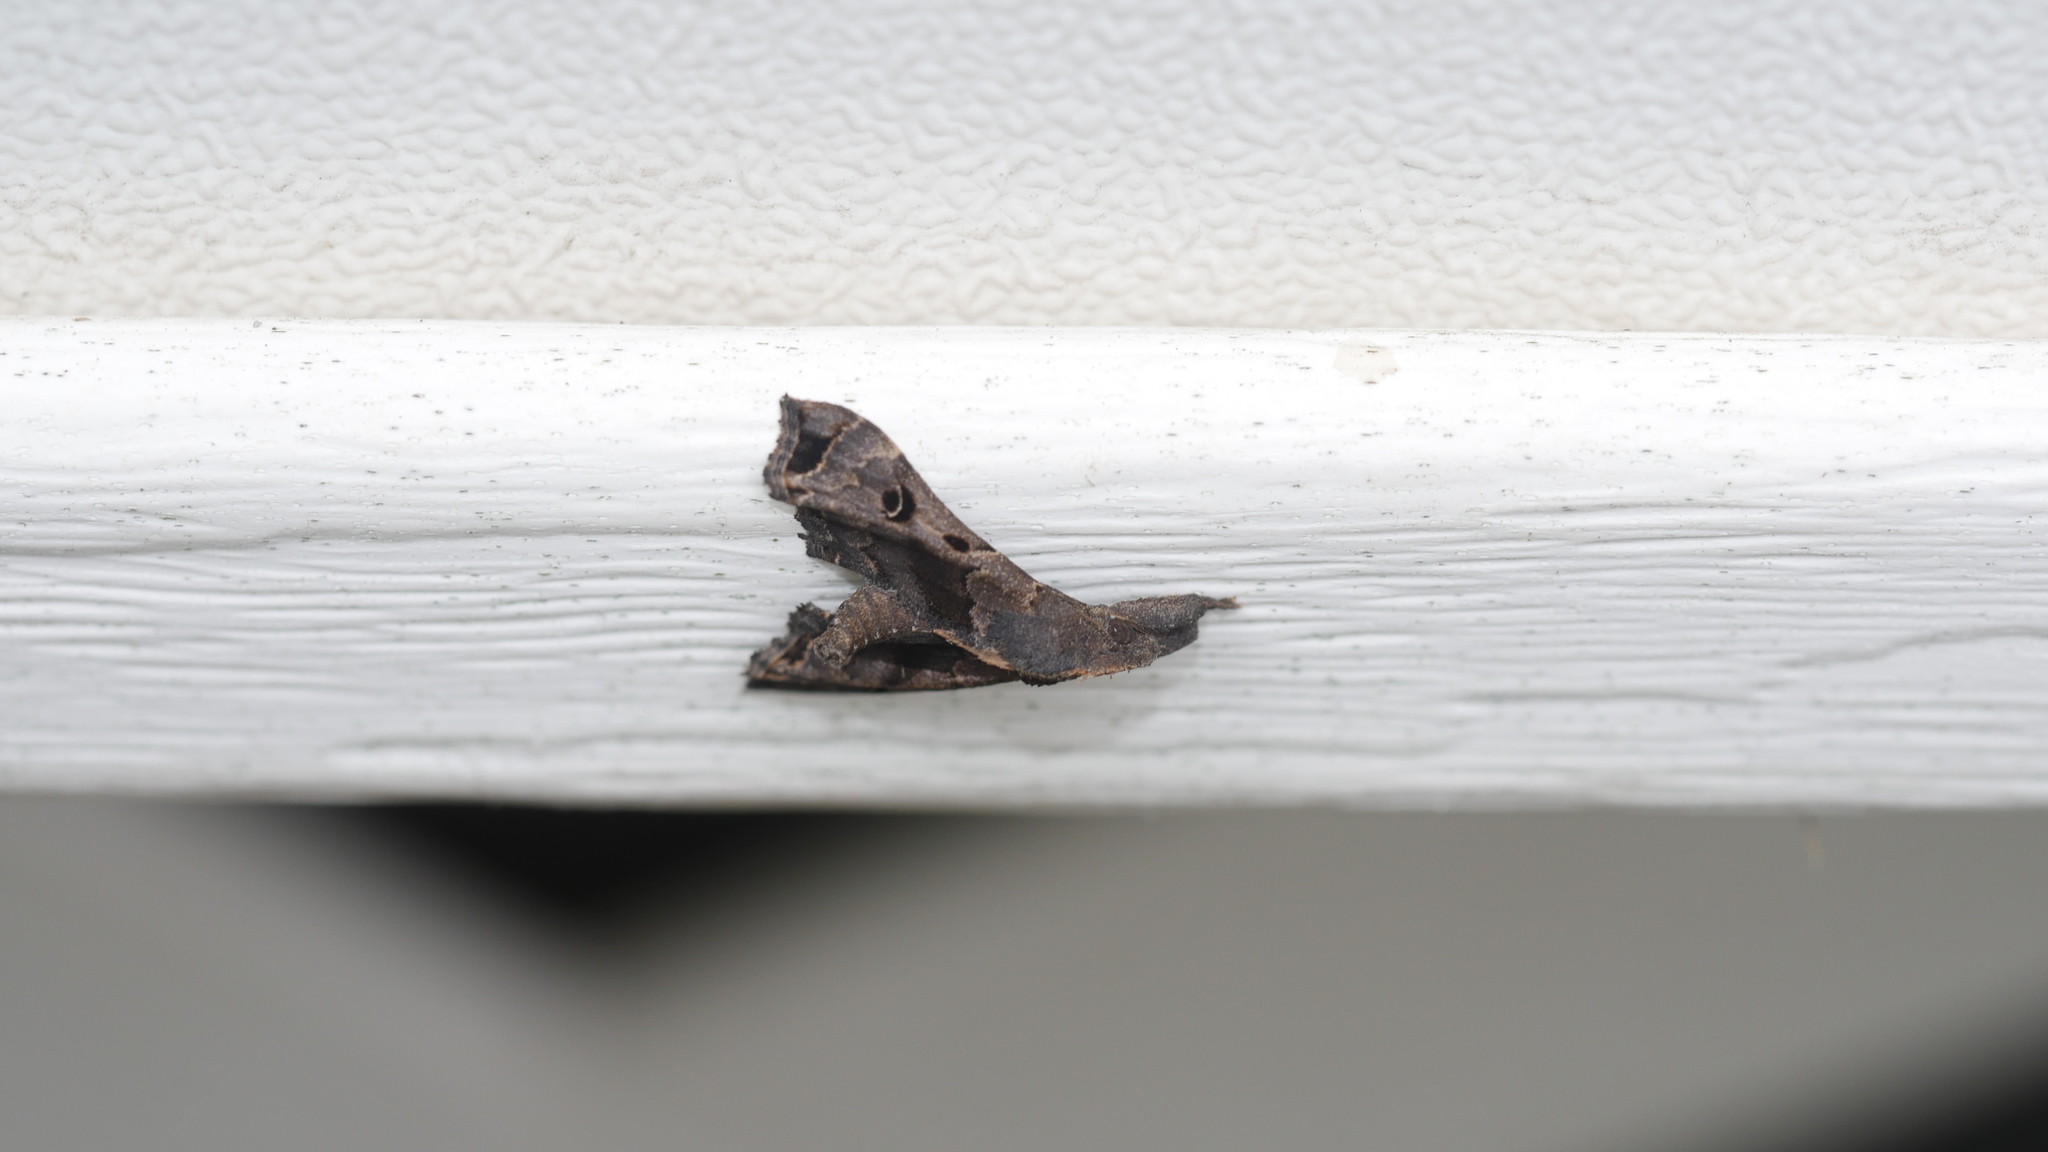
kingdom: Animalia
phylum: Arthropoda
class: Insecta
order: Lepidoptera
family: Erebidae
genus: Palthis
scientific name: Palthis asopialis
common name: Faint-spotted palthis moth
